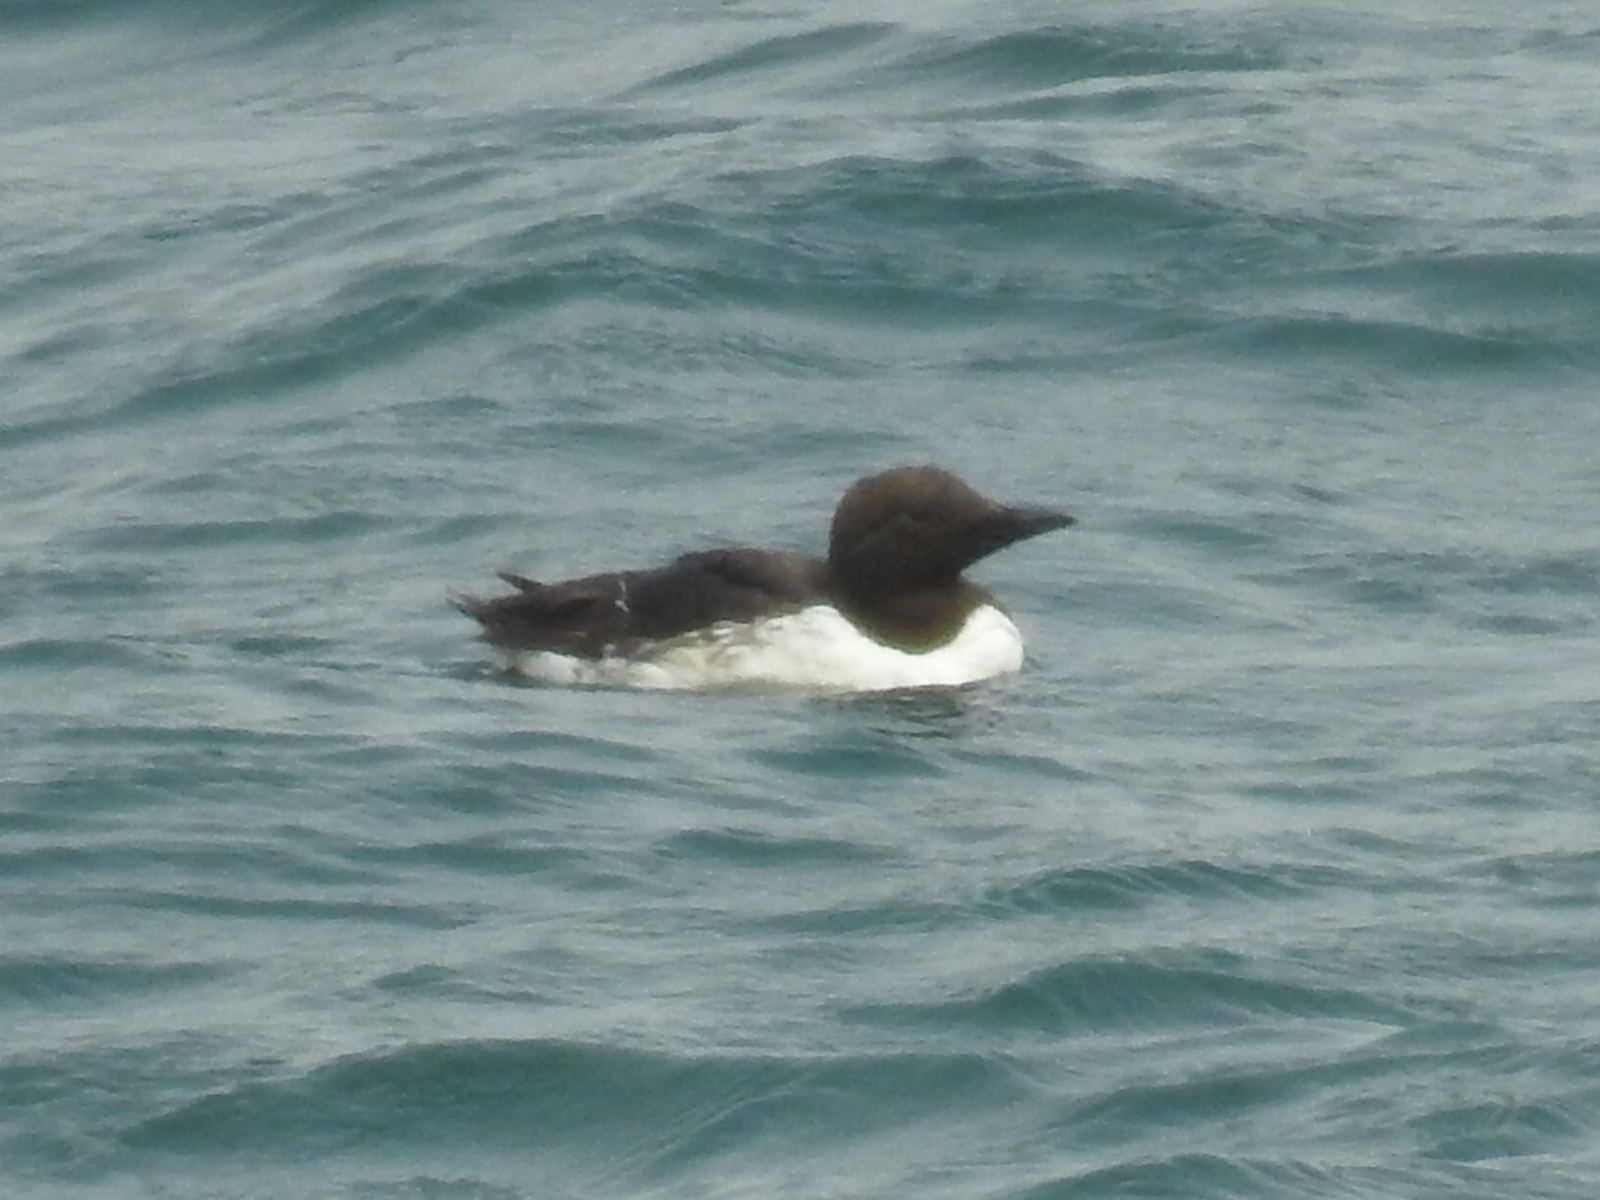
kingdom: Animalia
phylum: Chordata
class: Aves
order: Charadriiformes
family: Alcidae
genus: Uria
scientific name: Uria aalge
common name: Common murre
